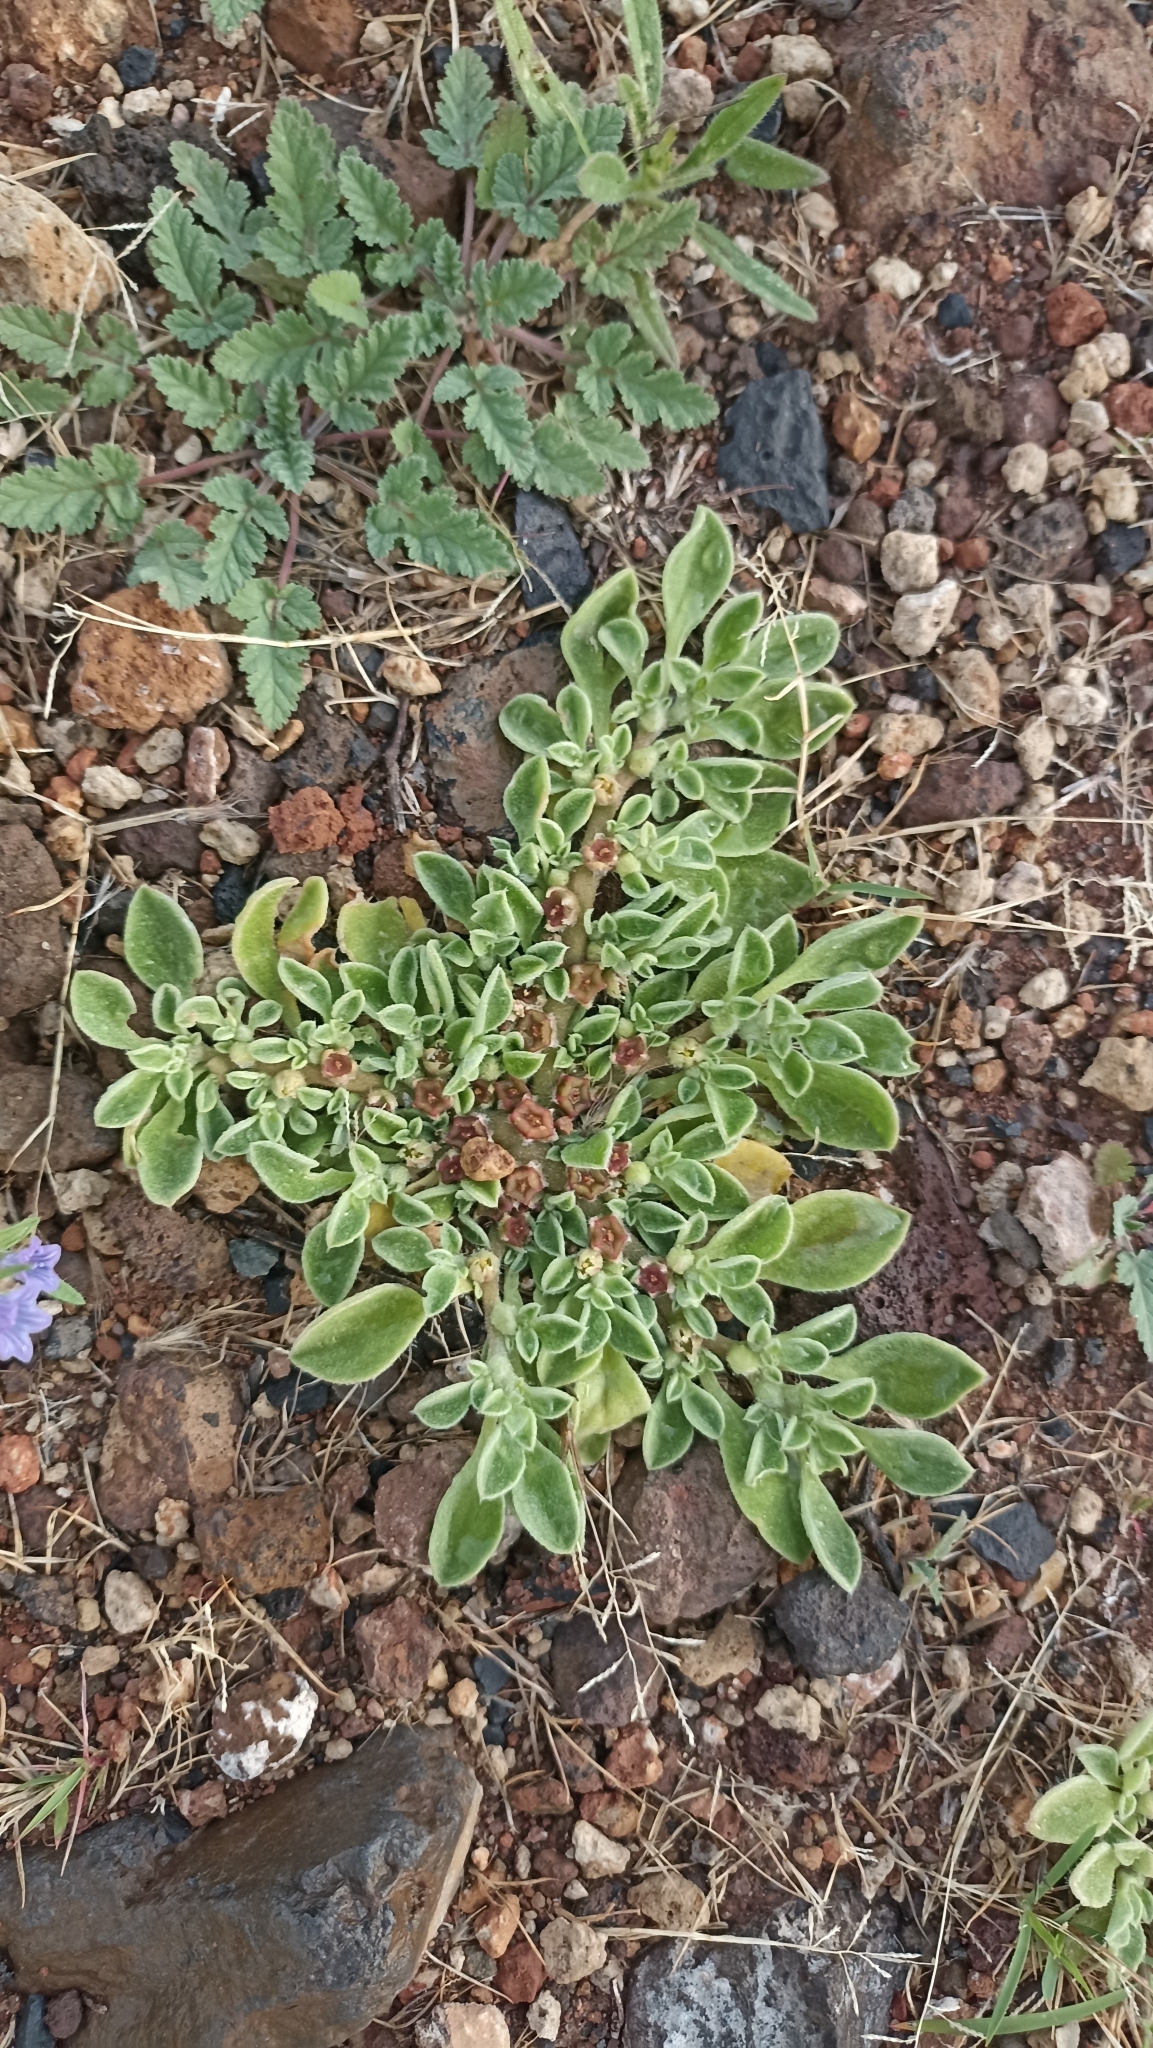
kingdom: Plantae
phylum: Tracheophyta
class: Magnoliopsida
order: Caryophyllales
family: Aizoaceae
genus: Aizoon
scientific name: Aizoon canariense
